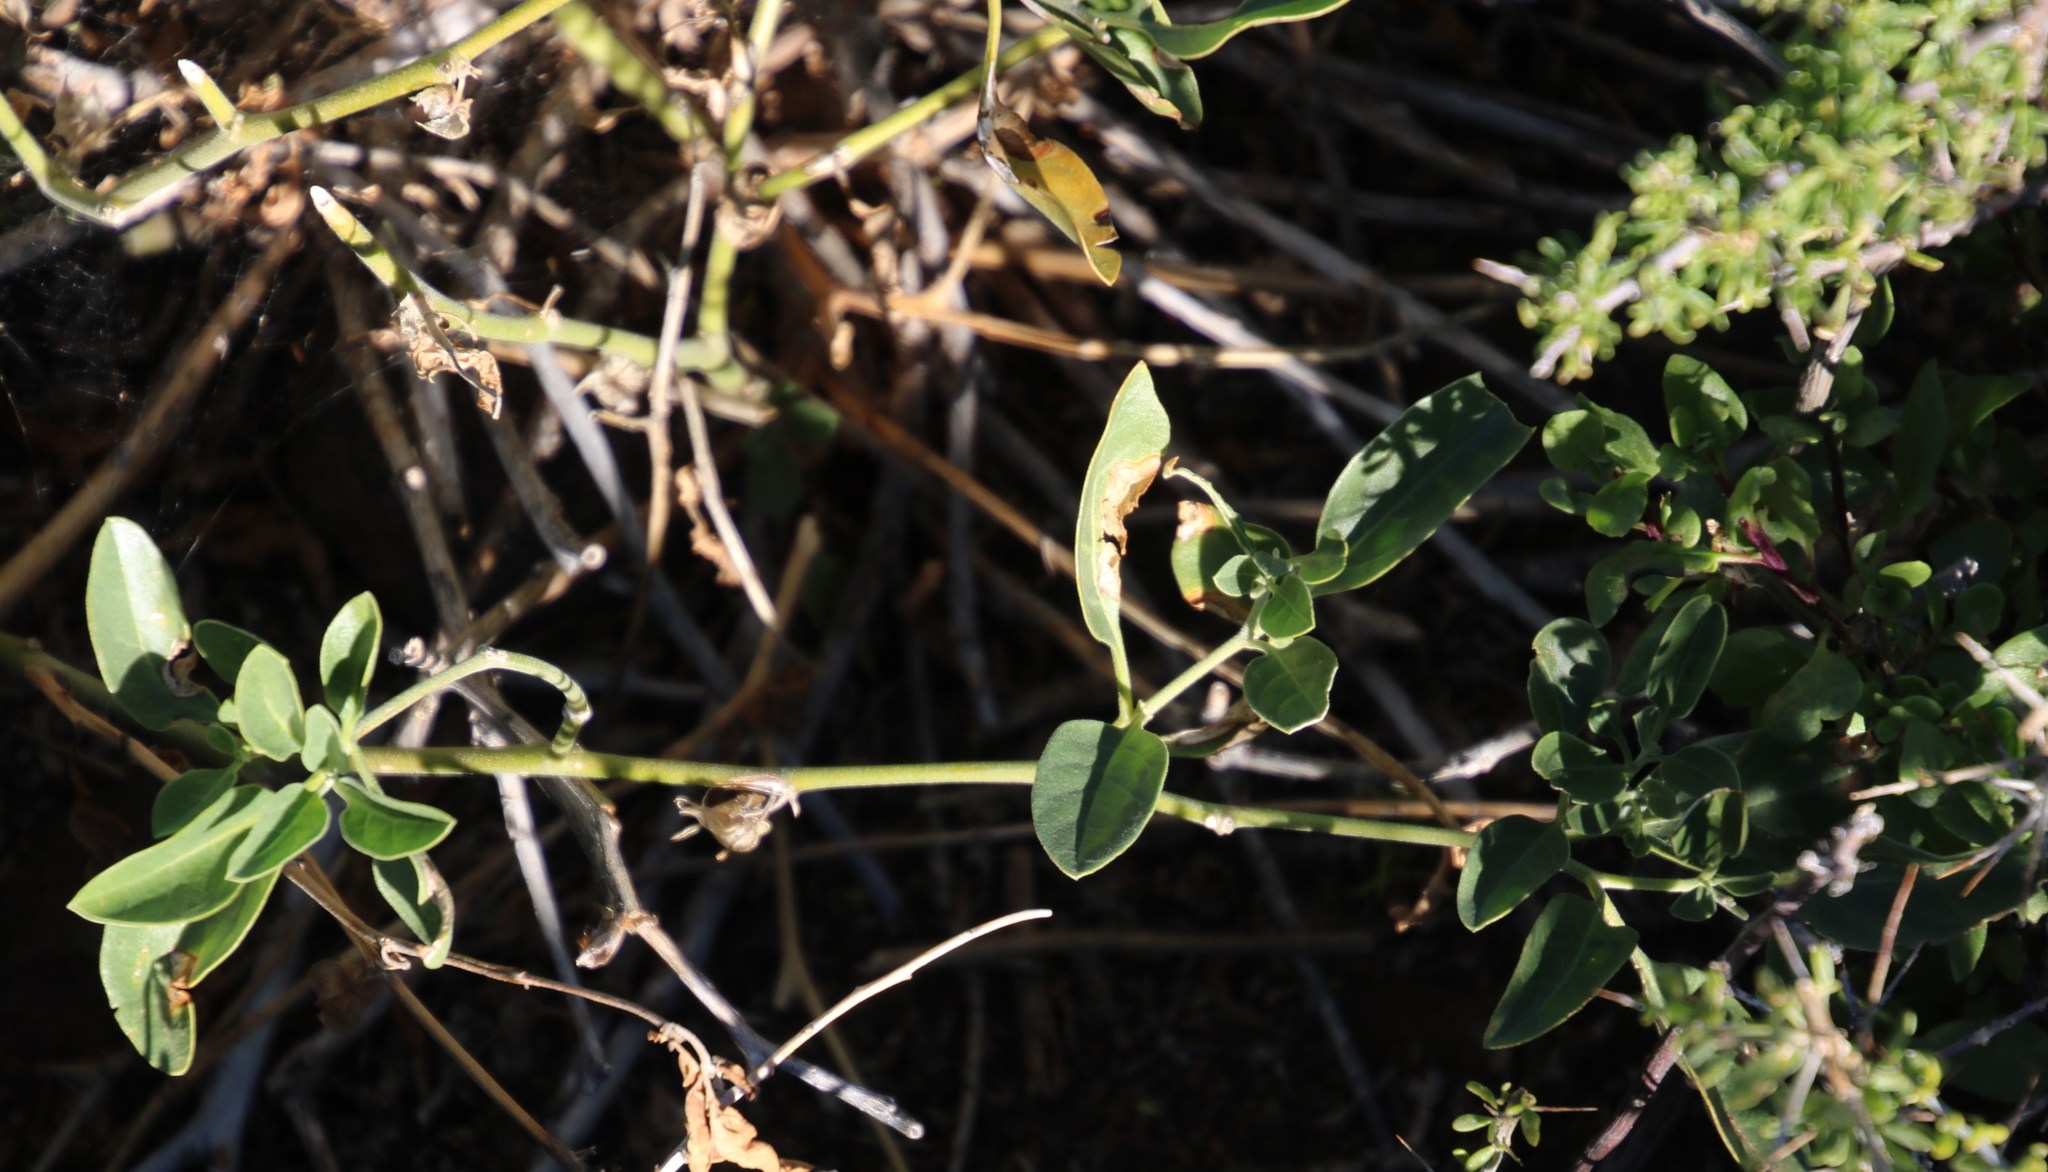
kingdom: Plantae
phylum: Tracheophyta
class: Magnoliopsida
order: Solanales
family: Solanaceae
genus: Withania
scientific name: Withania somnifera
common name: Winter-cherry
